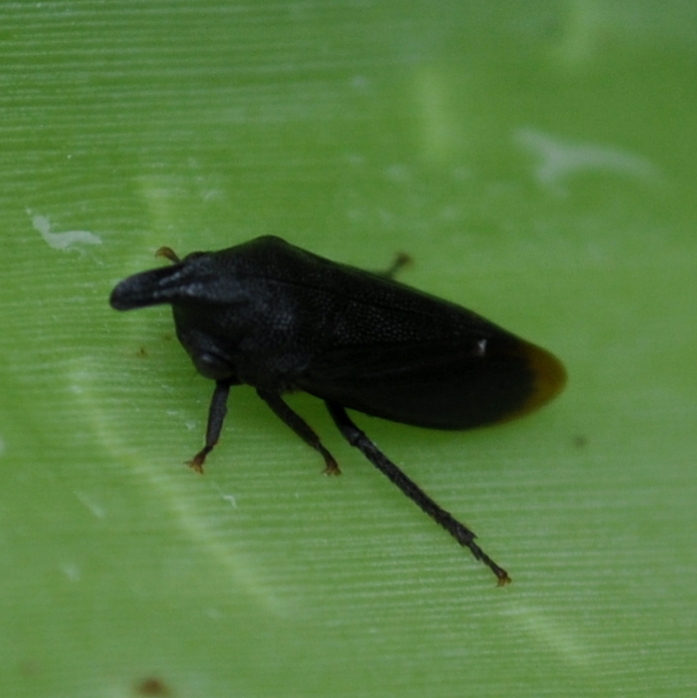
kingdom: Animalia
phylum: Arthropoda
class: Insecta
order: Hemiptera
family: Membracidae
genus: Kronides
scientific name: Kronides incumbens
